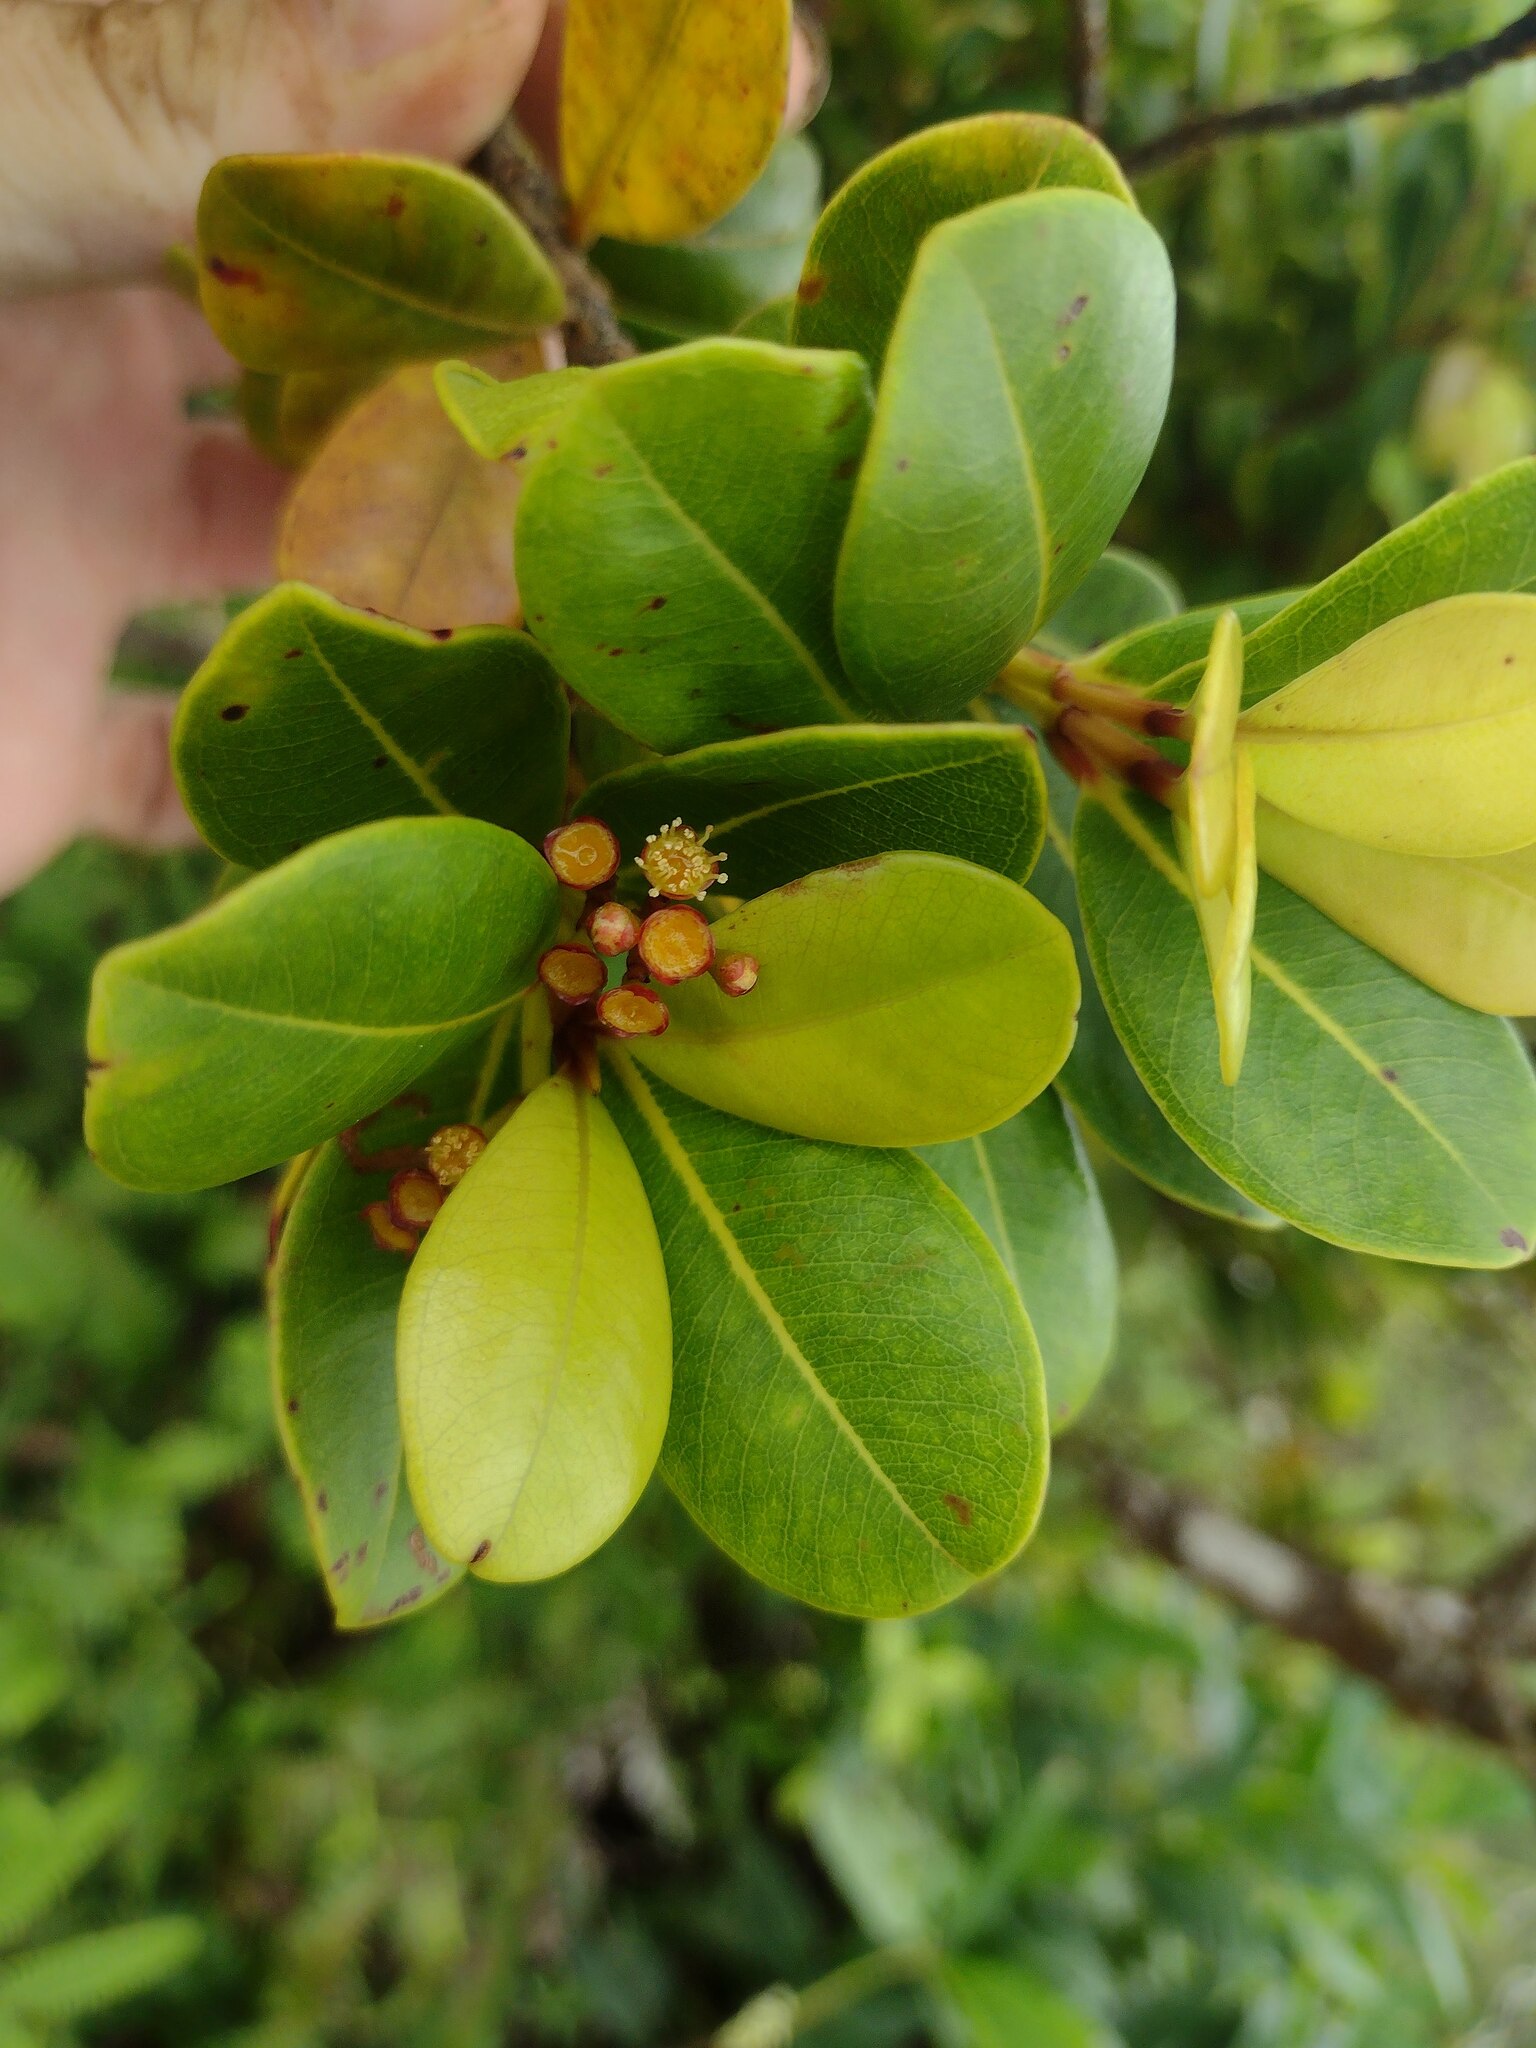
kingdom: Plantae
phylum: Tracheophyta
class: Magnoliopsida
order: Myrtales
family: Myrtaceae
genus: Syzygium
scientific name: Syzygium sandwicense
